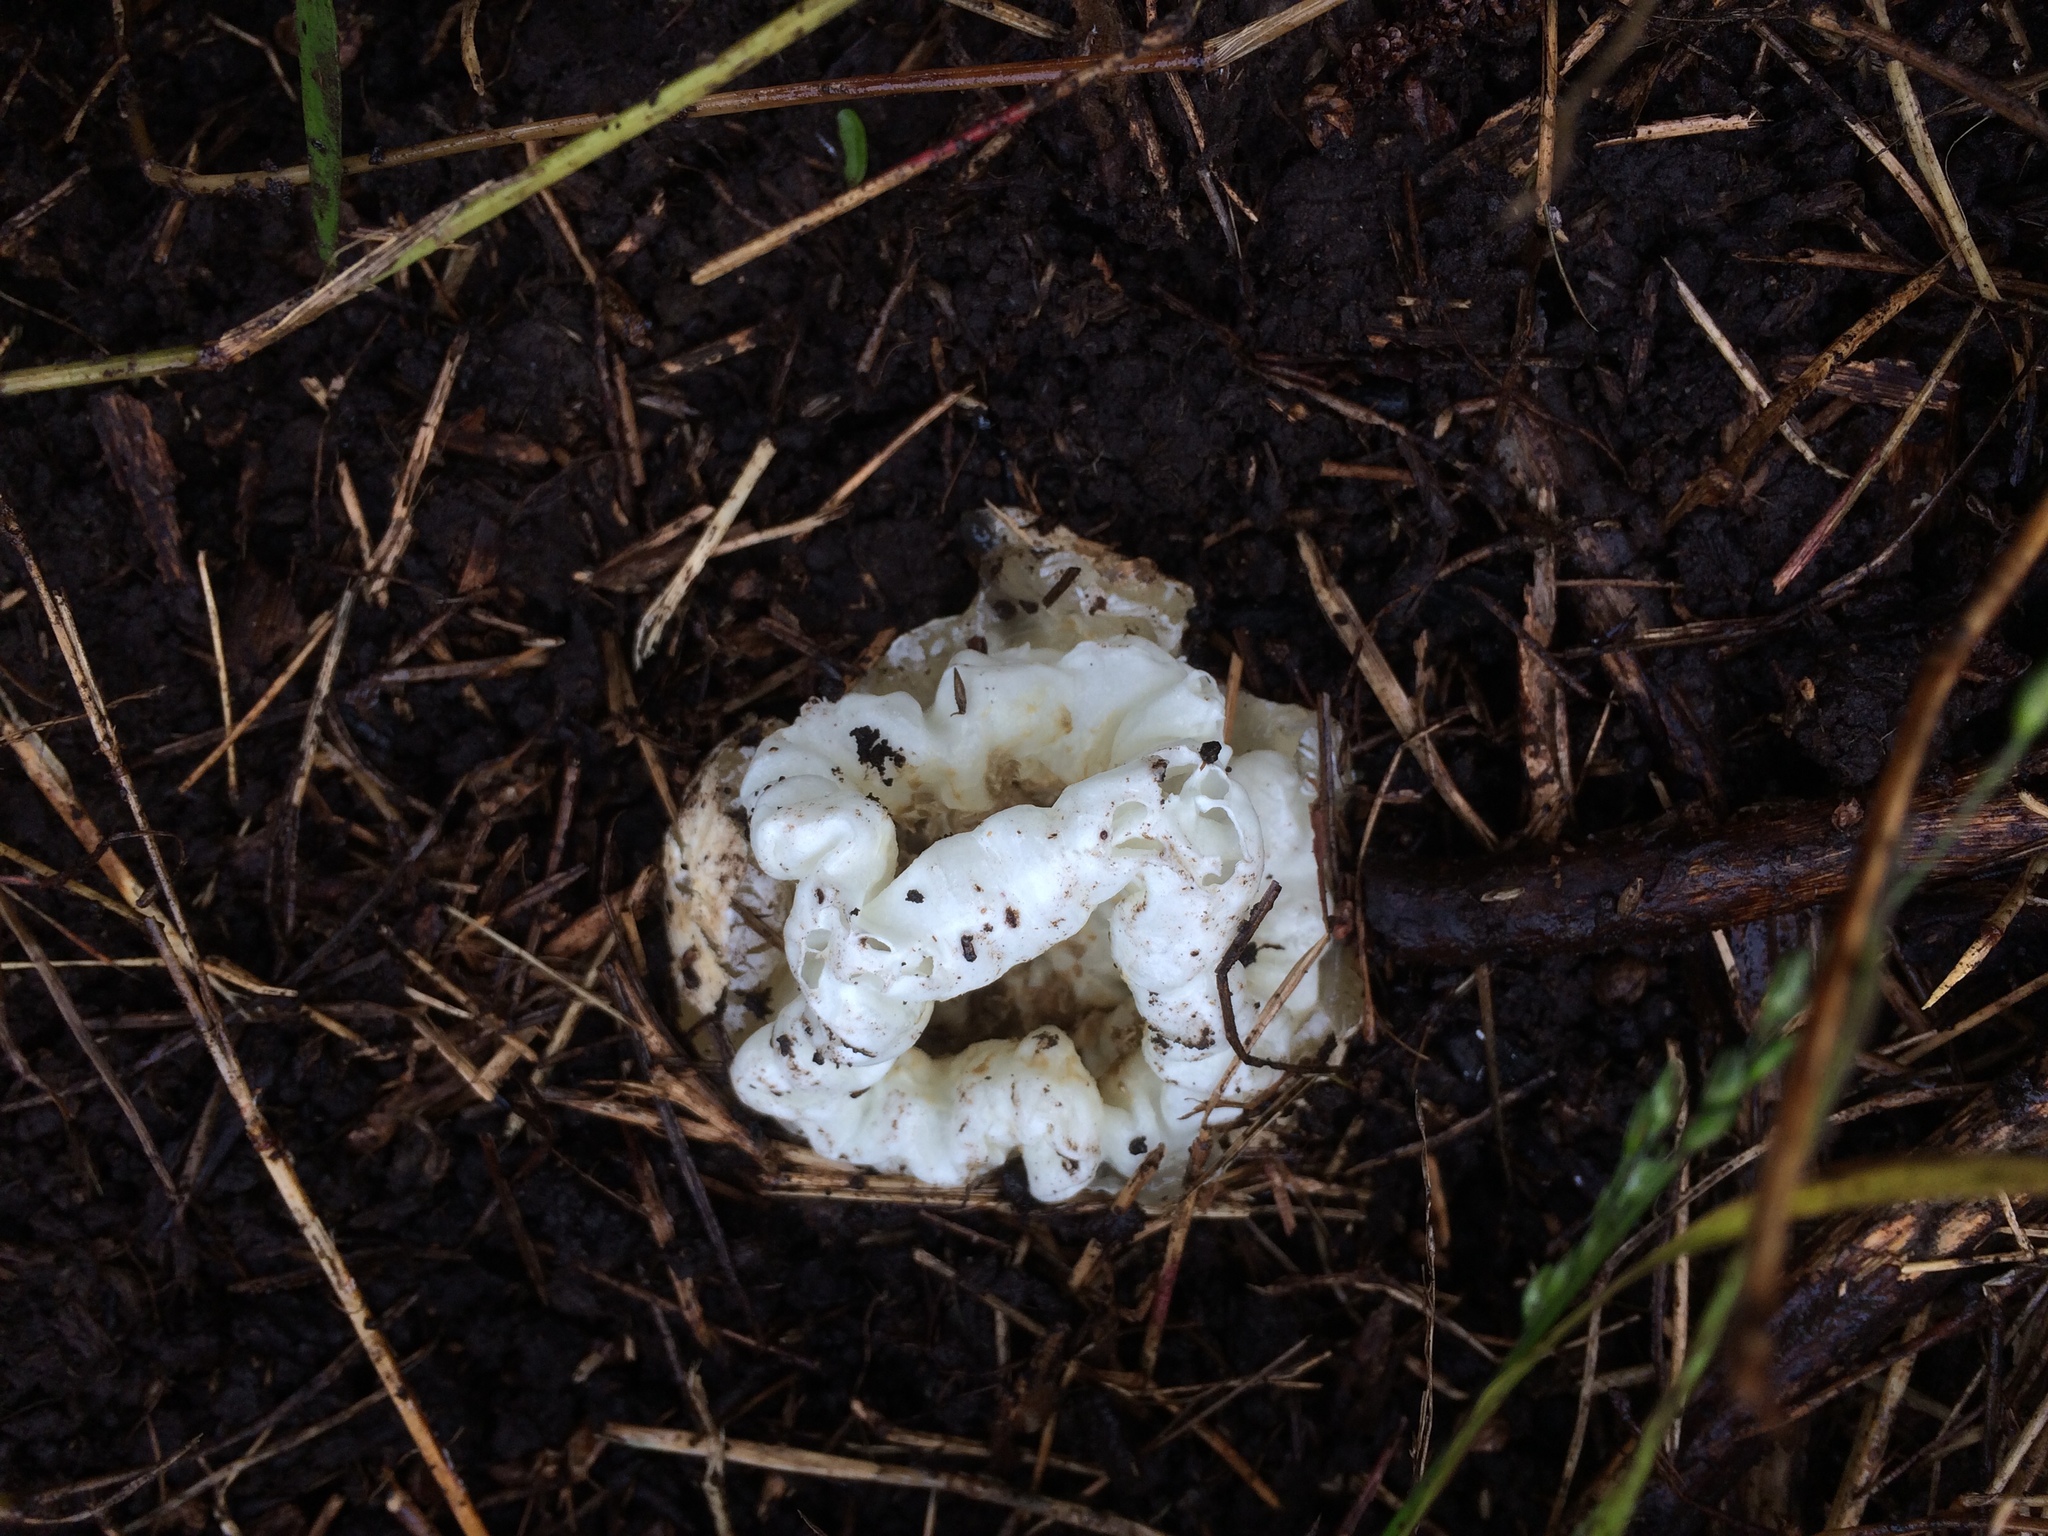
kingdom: Fungi
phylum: Basidiomycota
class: Agaricomycetes
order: Phallales
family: Phallaceae
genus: Ileodictyon
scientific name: Ileodictyon cibarium
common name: Basket fungus
